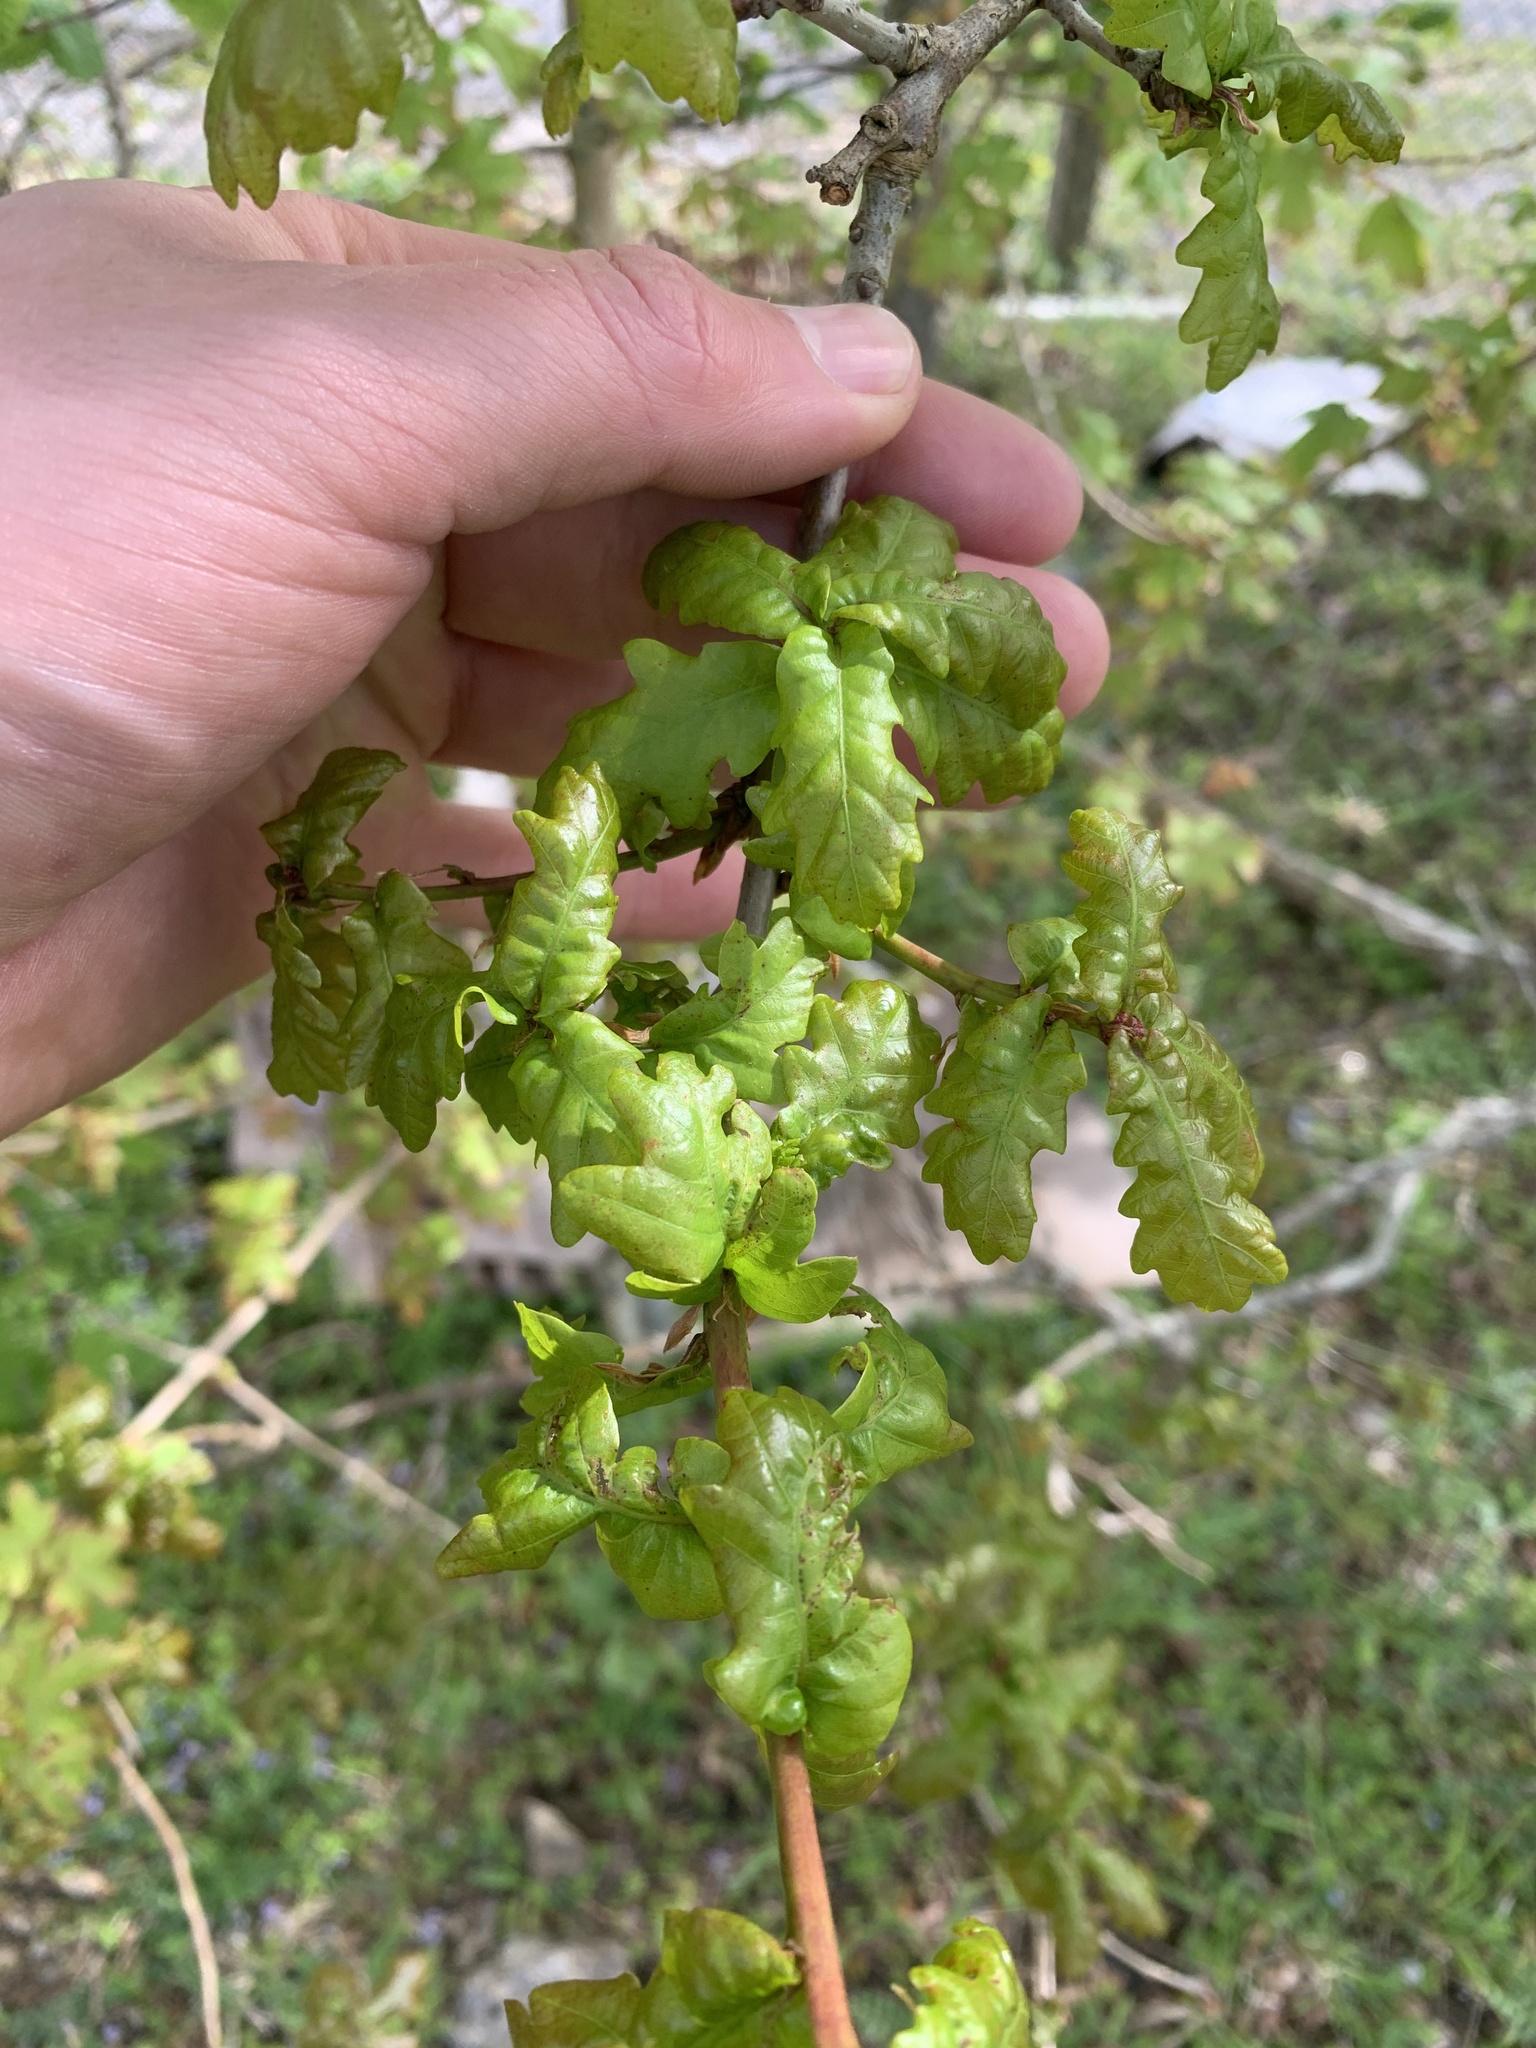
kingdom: Plantae
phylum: Tracheophyta
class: Magnoliopsida
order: Fagales
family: Fagaceae
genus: Quercus
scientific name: Quercus robur
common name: Pedunculate oak
